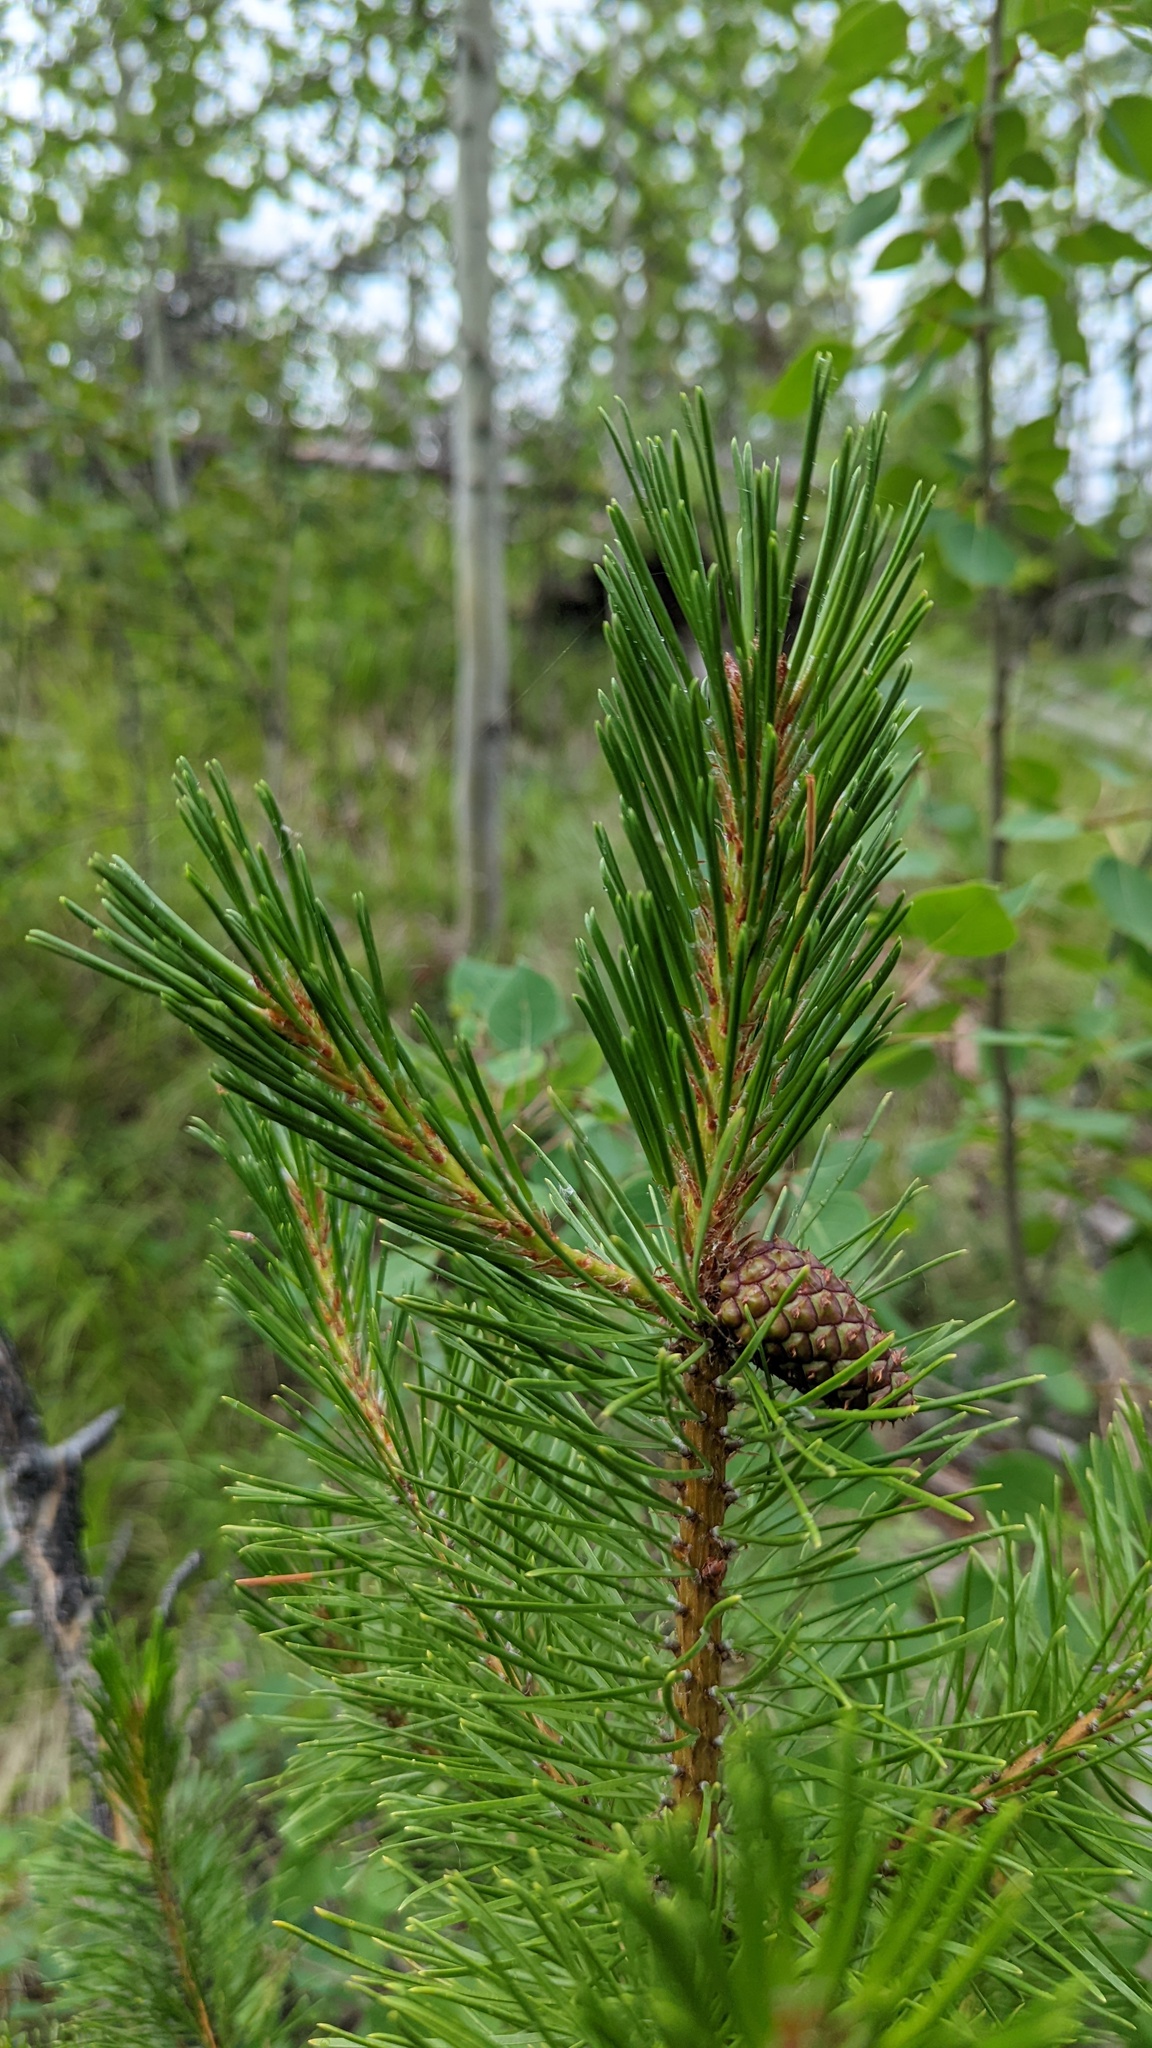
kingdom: Plantae
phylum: Tracheophyta
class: Pinopsida
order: Pinales
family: Pinaceae
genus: Pinus
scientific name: Pinus contorta
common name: Lodgepole pine
